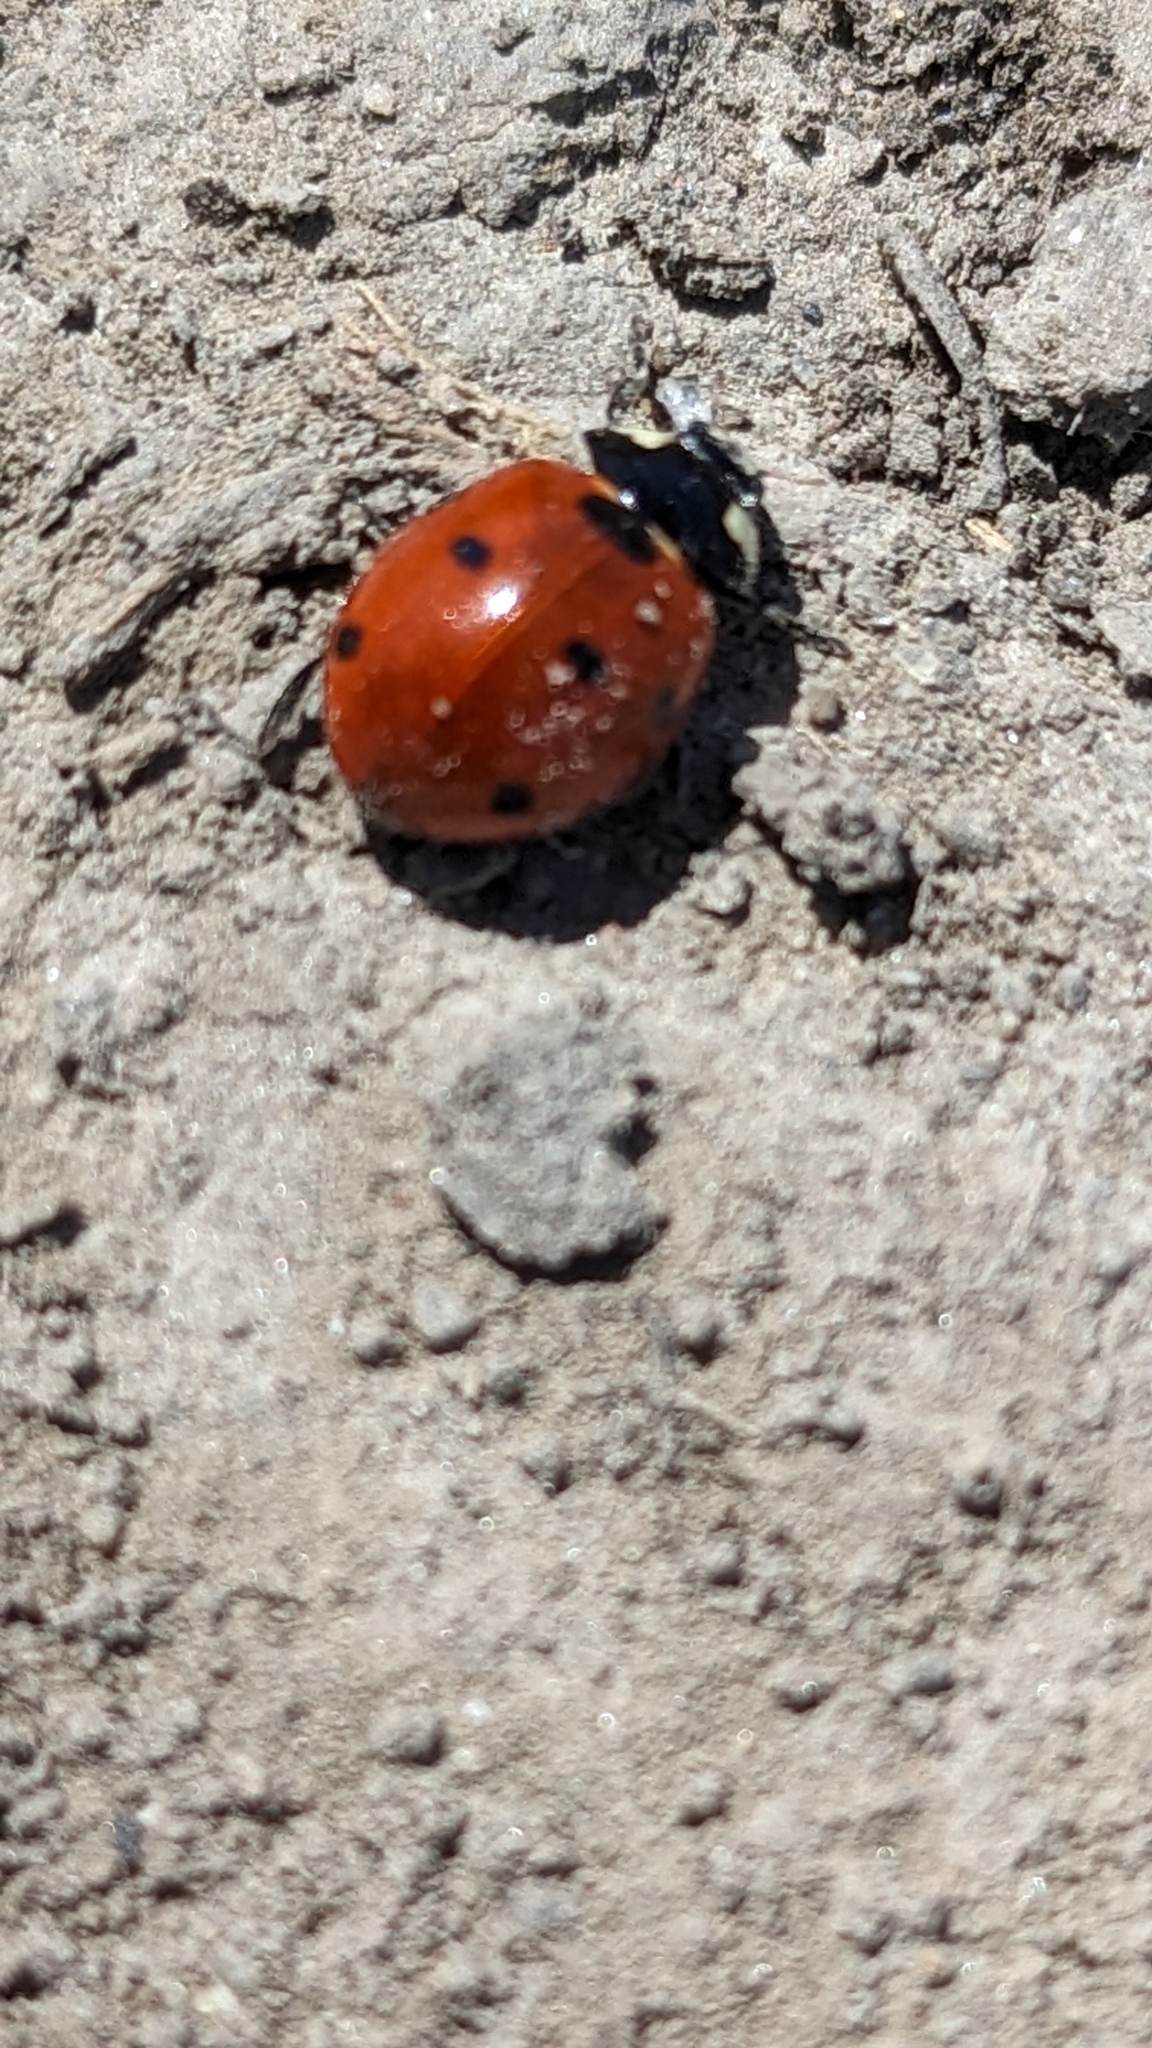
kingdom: Animalia
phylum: Arthropoda
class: Insecta
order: Coleoptera
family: Coccinellidae
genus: Coccinella
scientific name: Coccinella septempunctata
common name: Sevenspotted lady beetle
